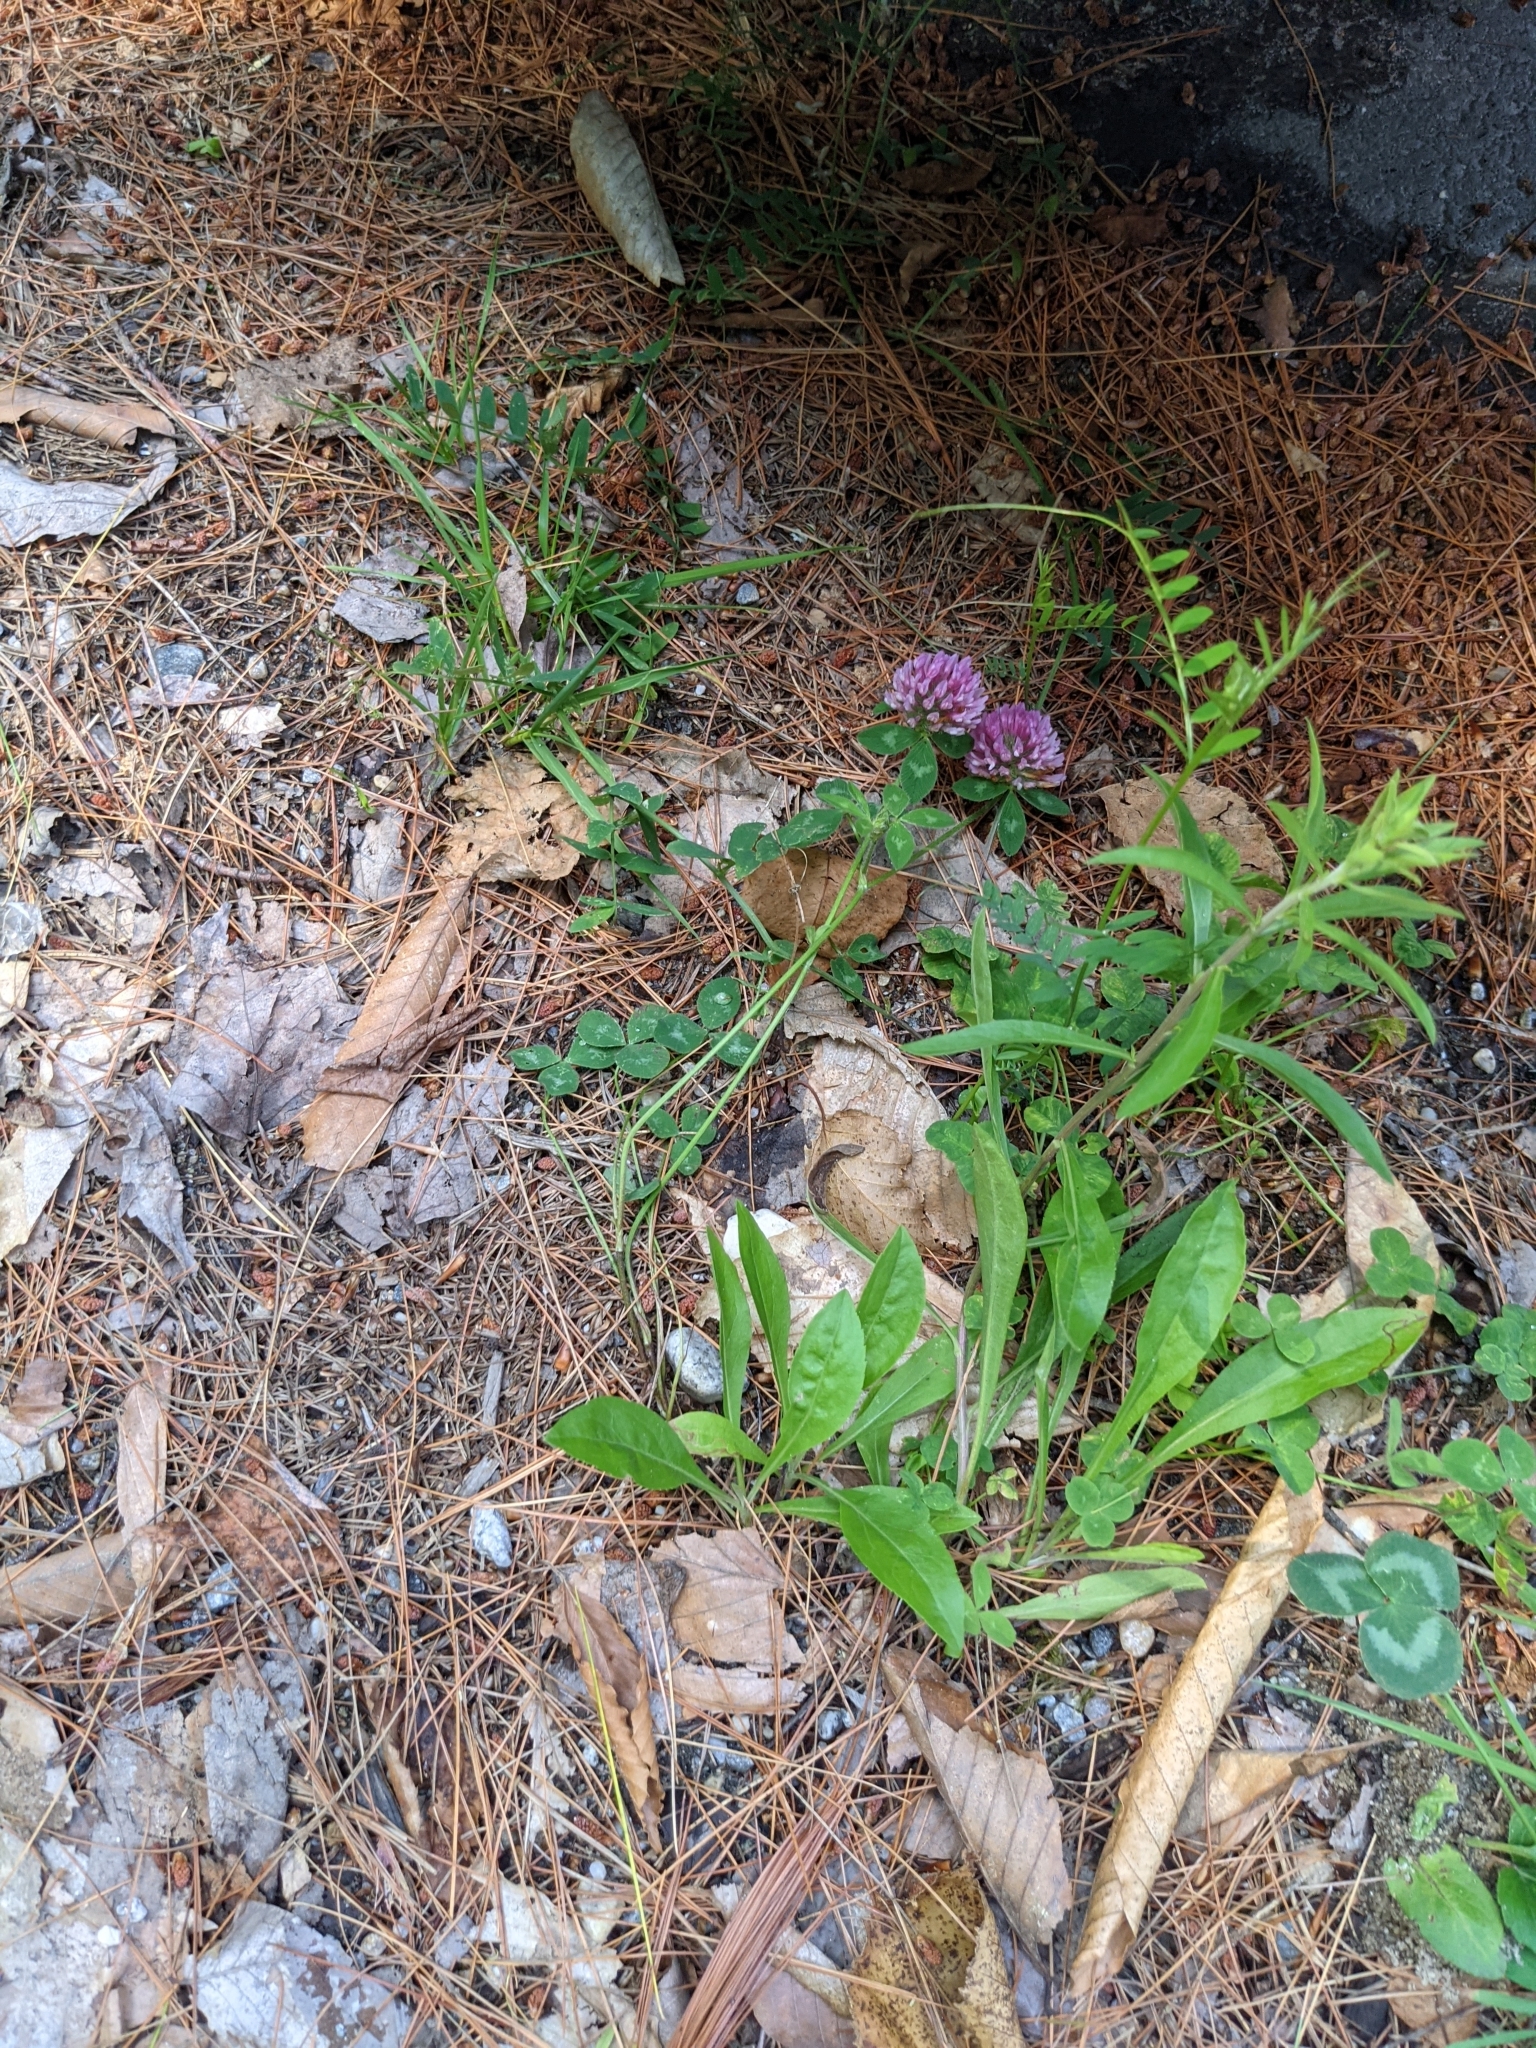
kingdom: Plantae
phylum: Tracheophyta
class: Magnoliopsida
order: Fabales
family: Fabaceae
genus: Trifolium
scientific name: Trifolium pratense
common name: Red clover
